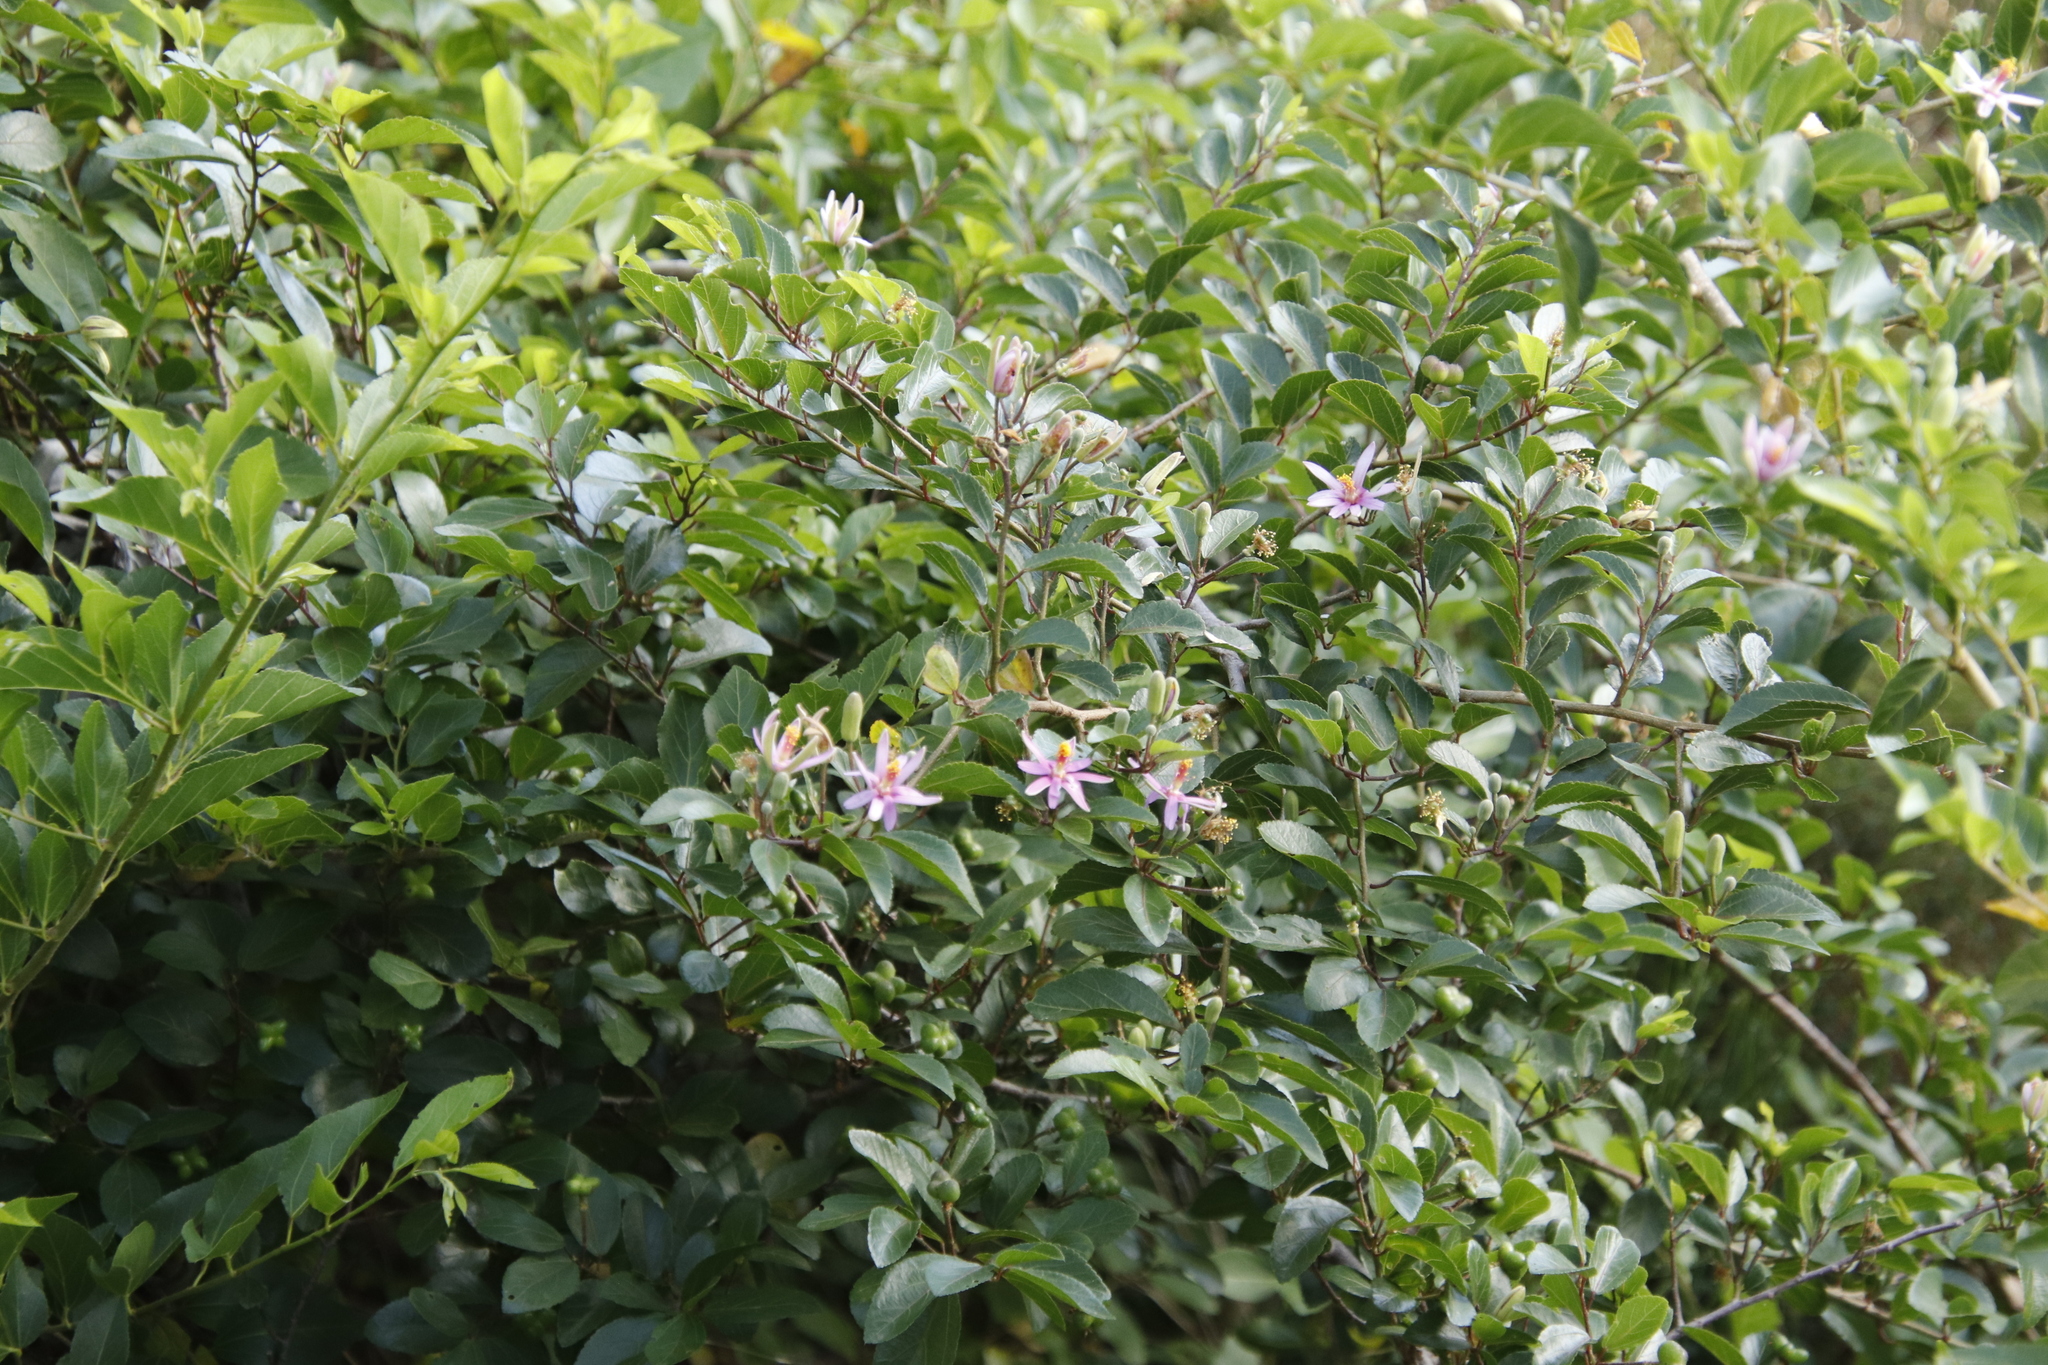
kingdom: Plantae
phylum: Tracheophyta
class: Magnoliopsida
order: Malvales
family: Malvaceae
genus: Grewia
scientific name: Grewia occidentalis
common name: Crossberry
